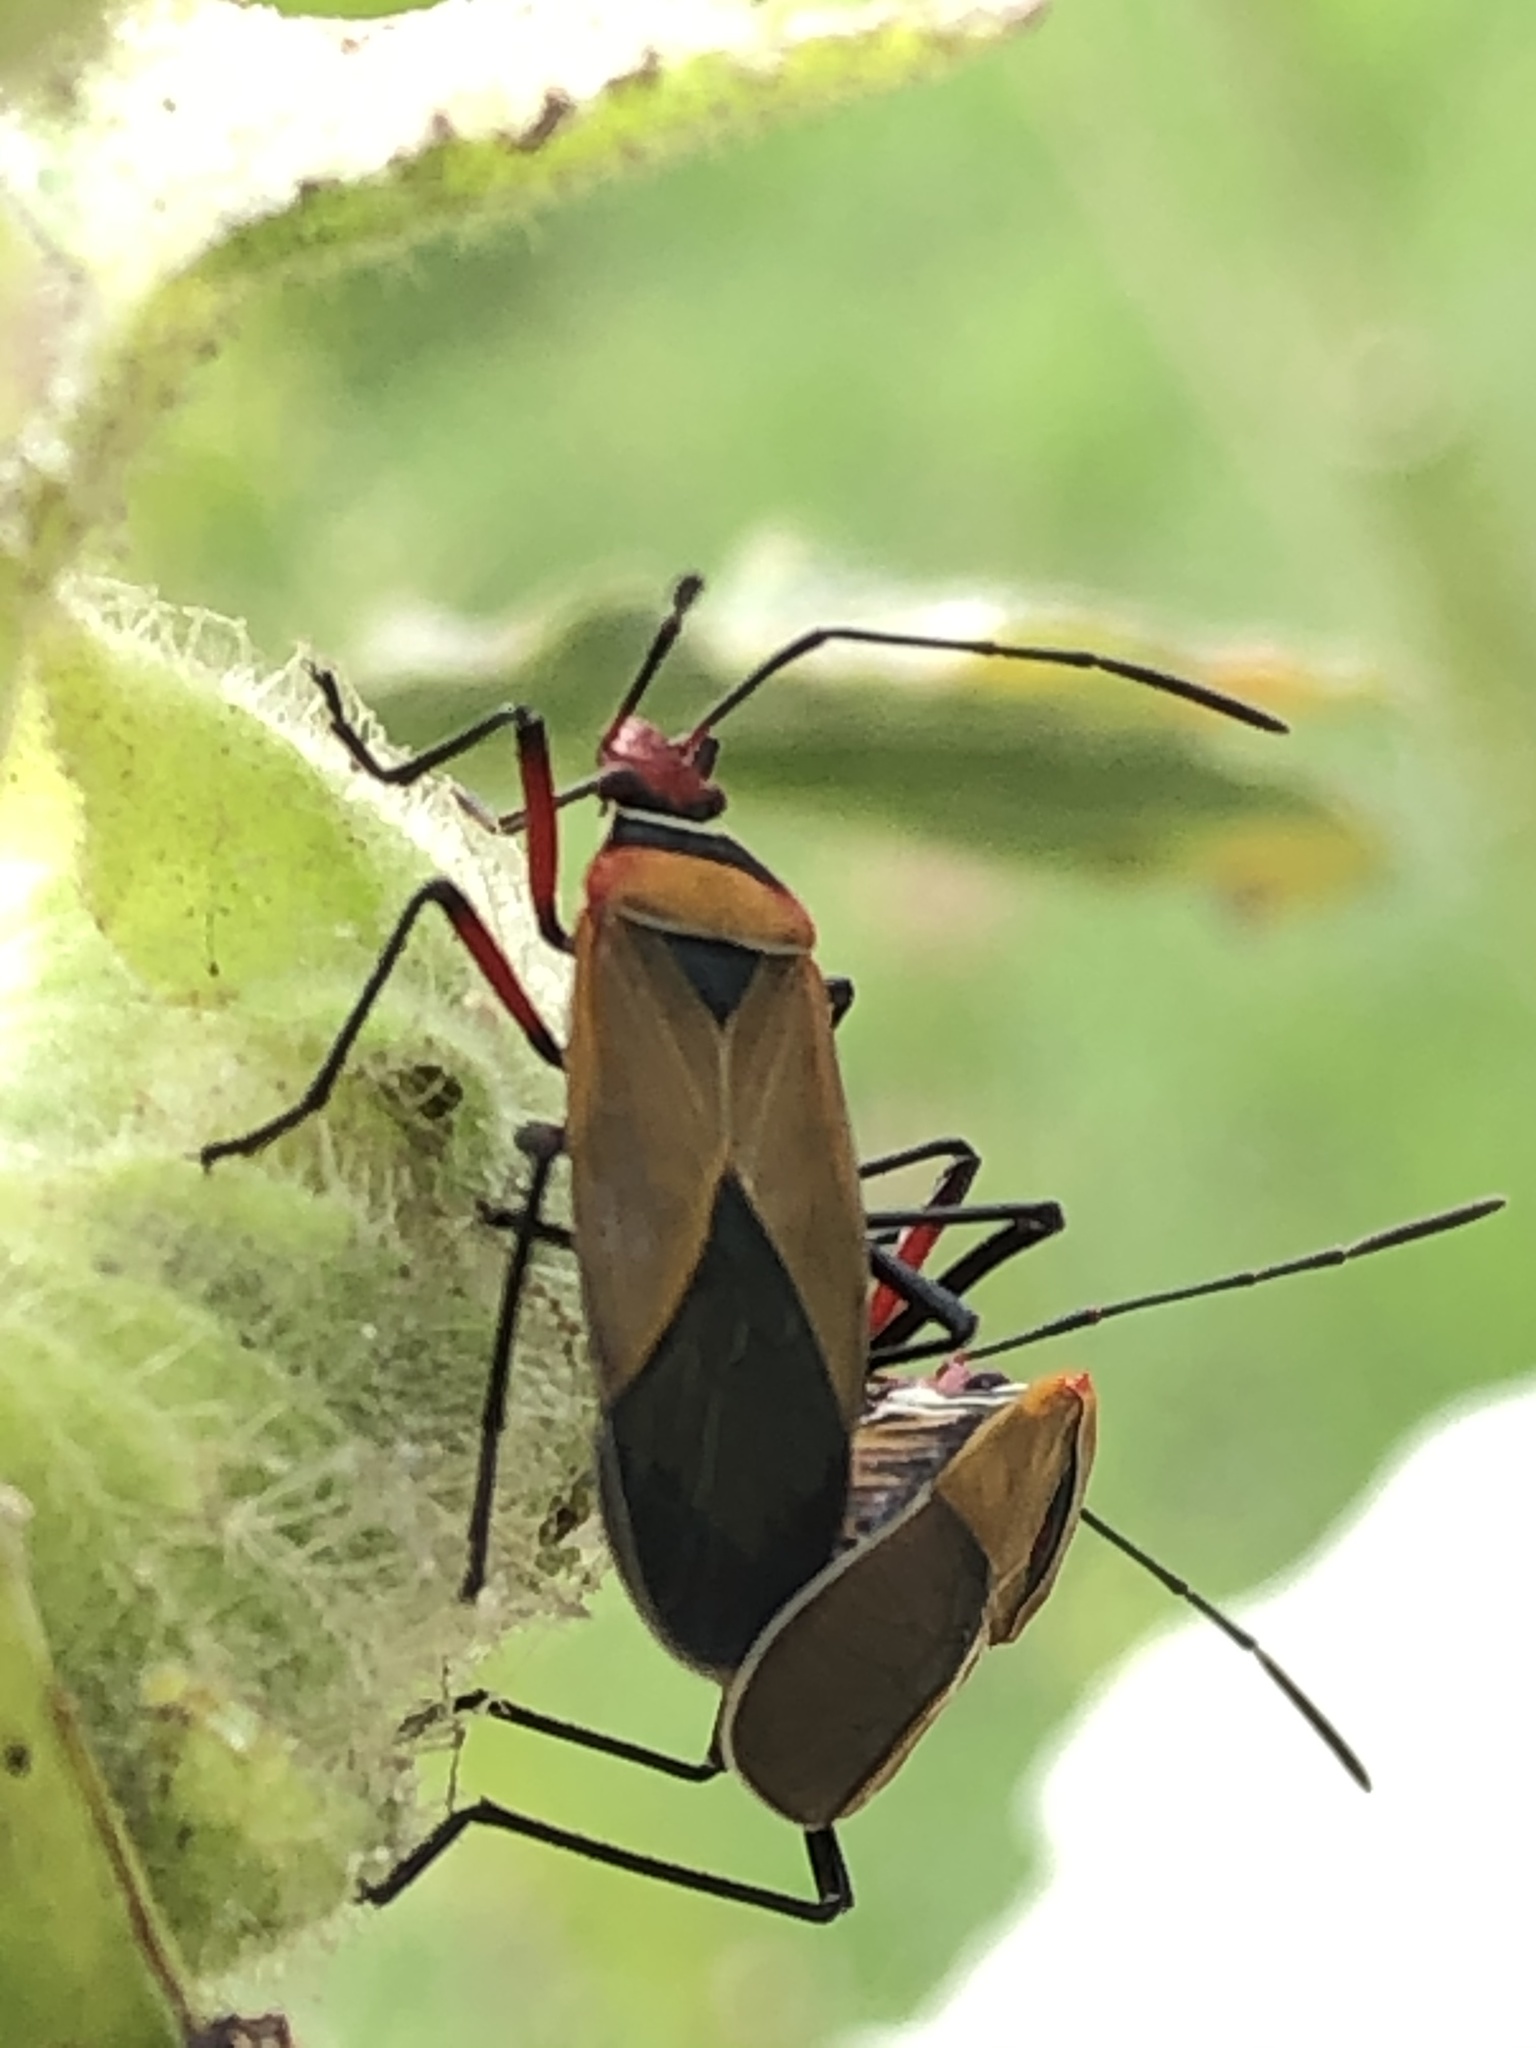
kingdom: Animalia
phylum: Arthropoda
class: Insecta
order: Hemiptera
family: Pyrrhocoridae
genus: Dysdercus
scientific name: Dysdercus peruvianus
